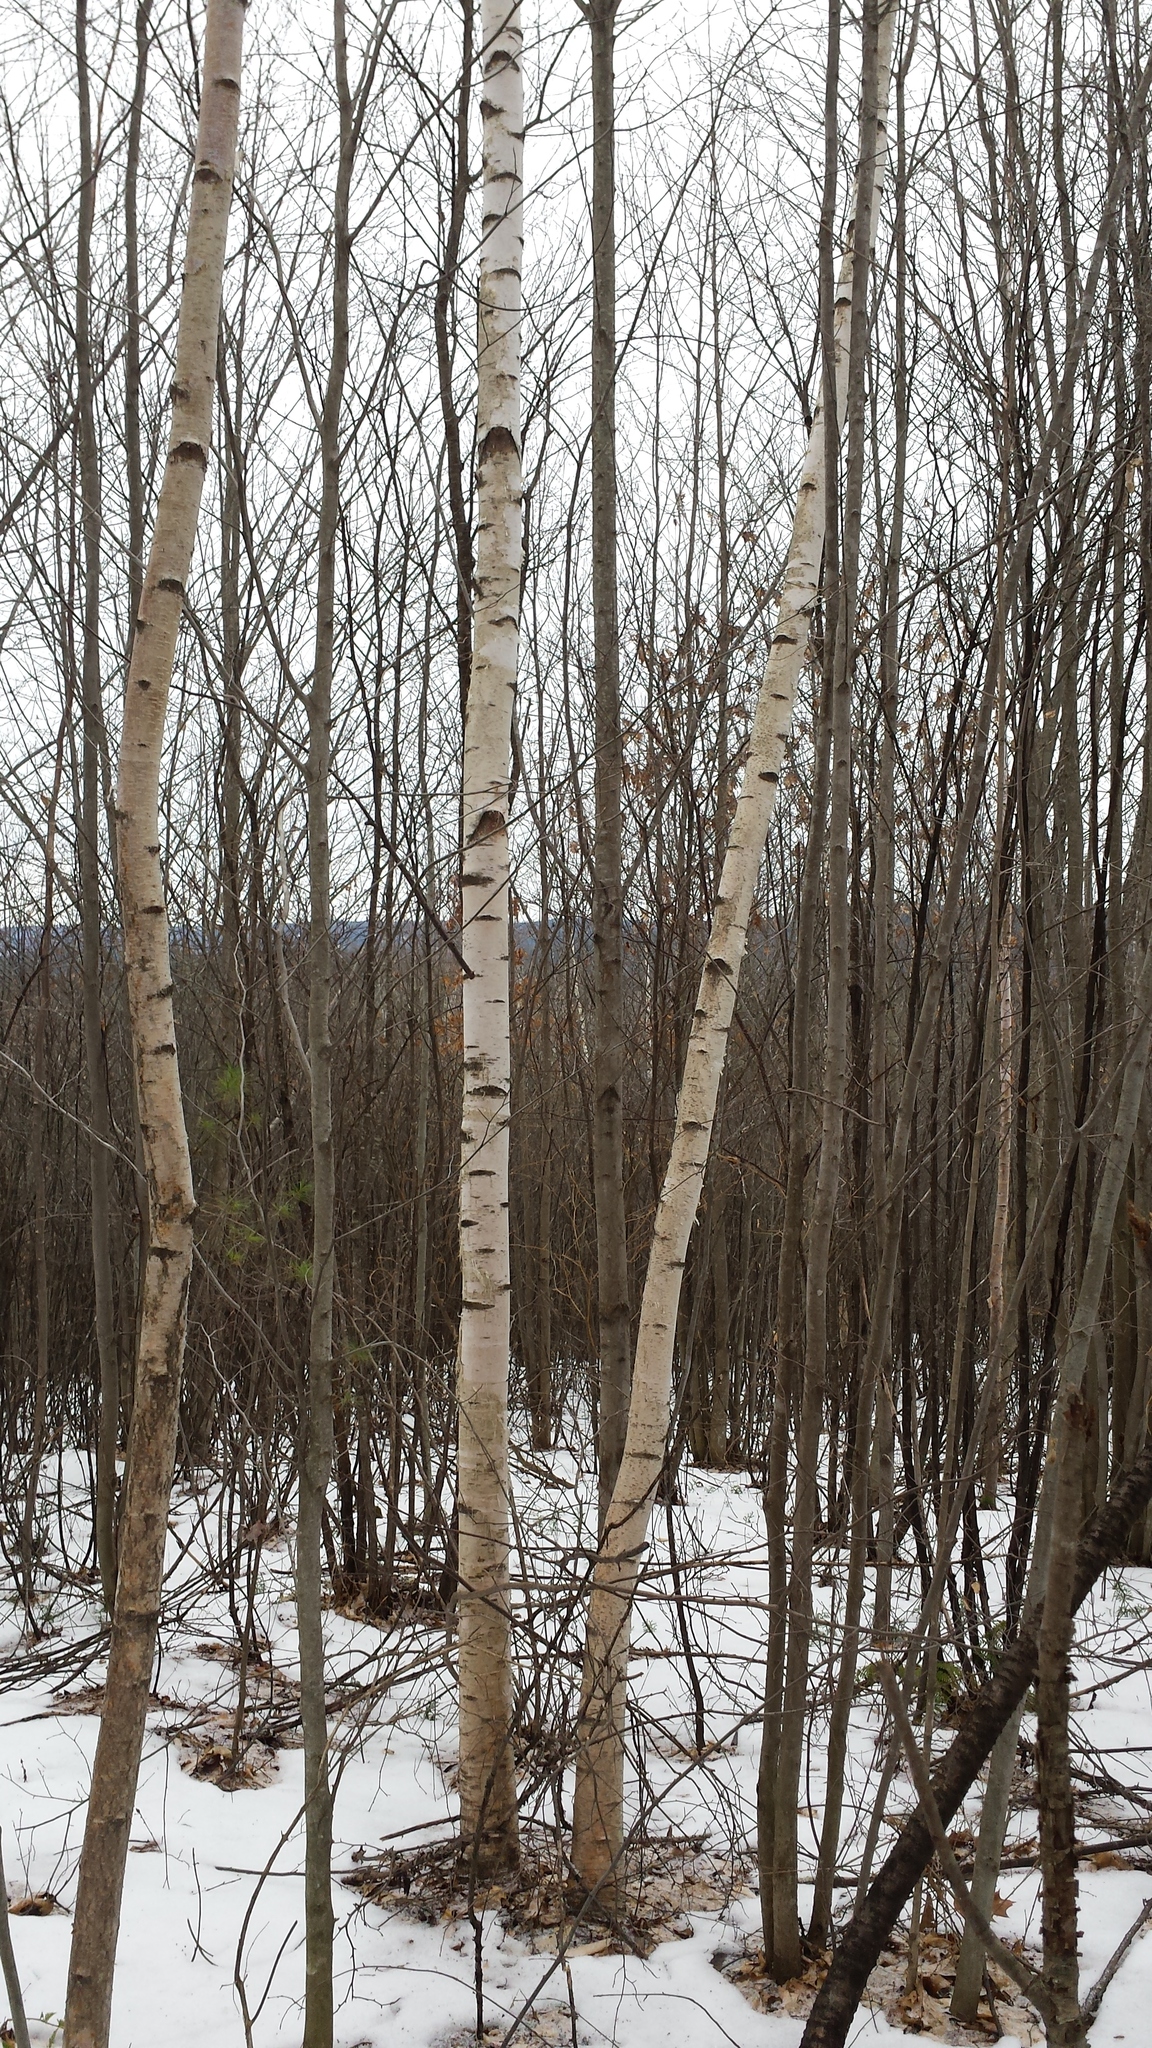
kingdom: Plantae
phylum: Tracheophyta
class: Magnoliopsida
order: Fagales
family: Betulaceae
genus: Betula
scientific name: Betula papyrifera
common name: Paper birch
